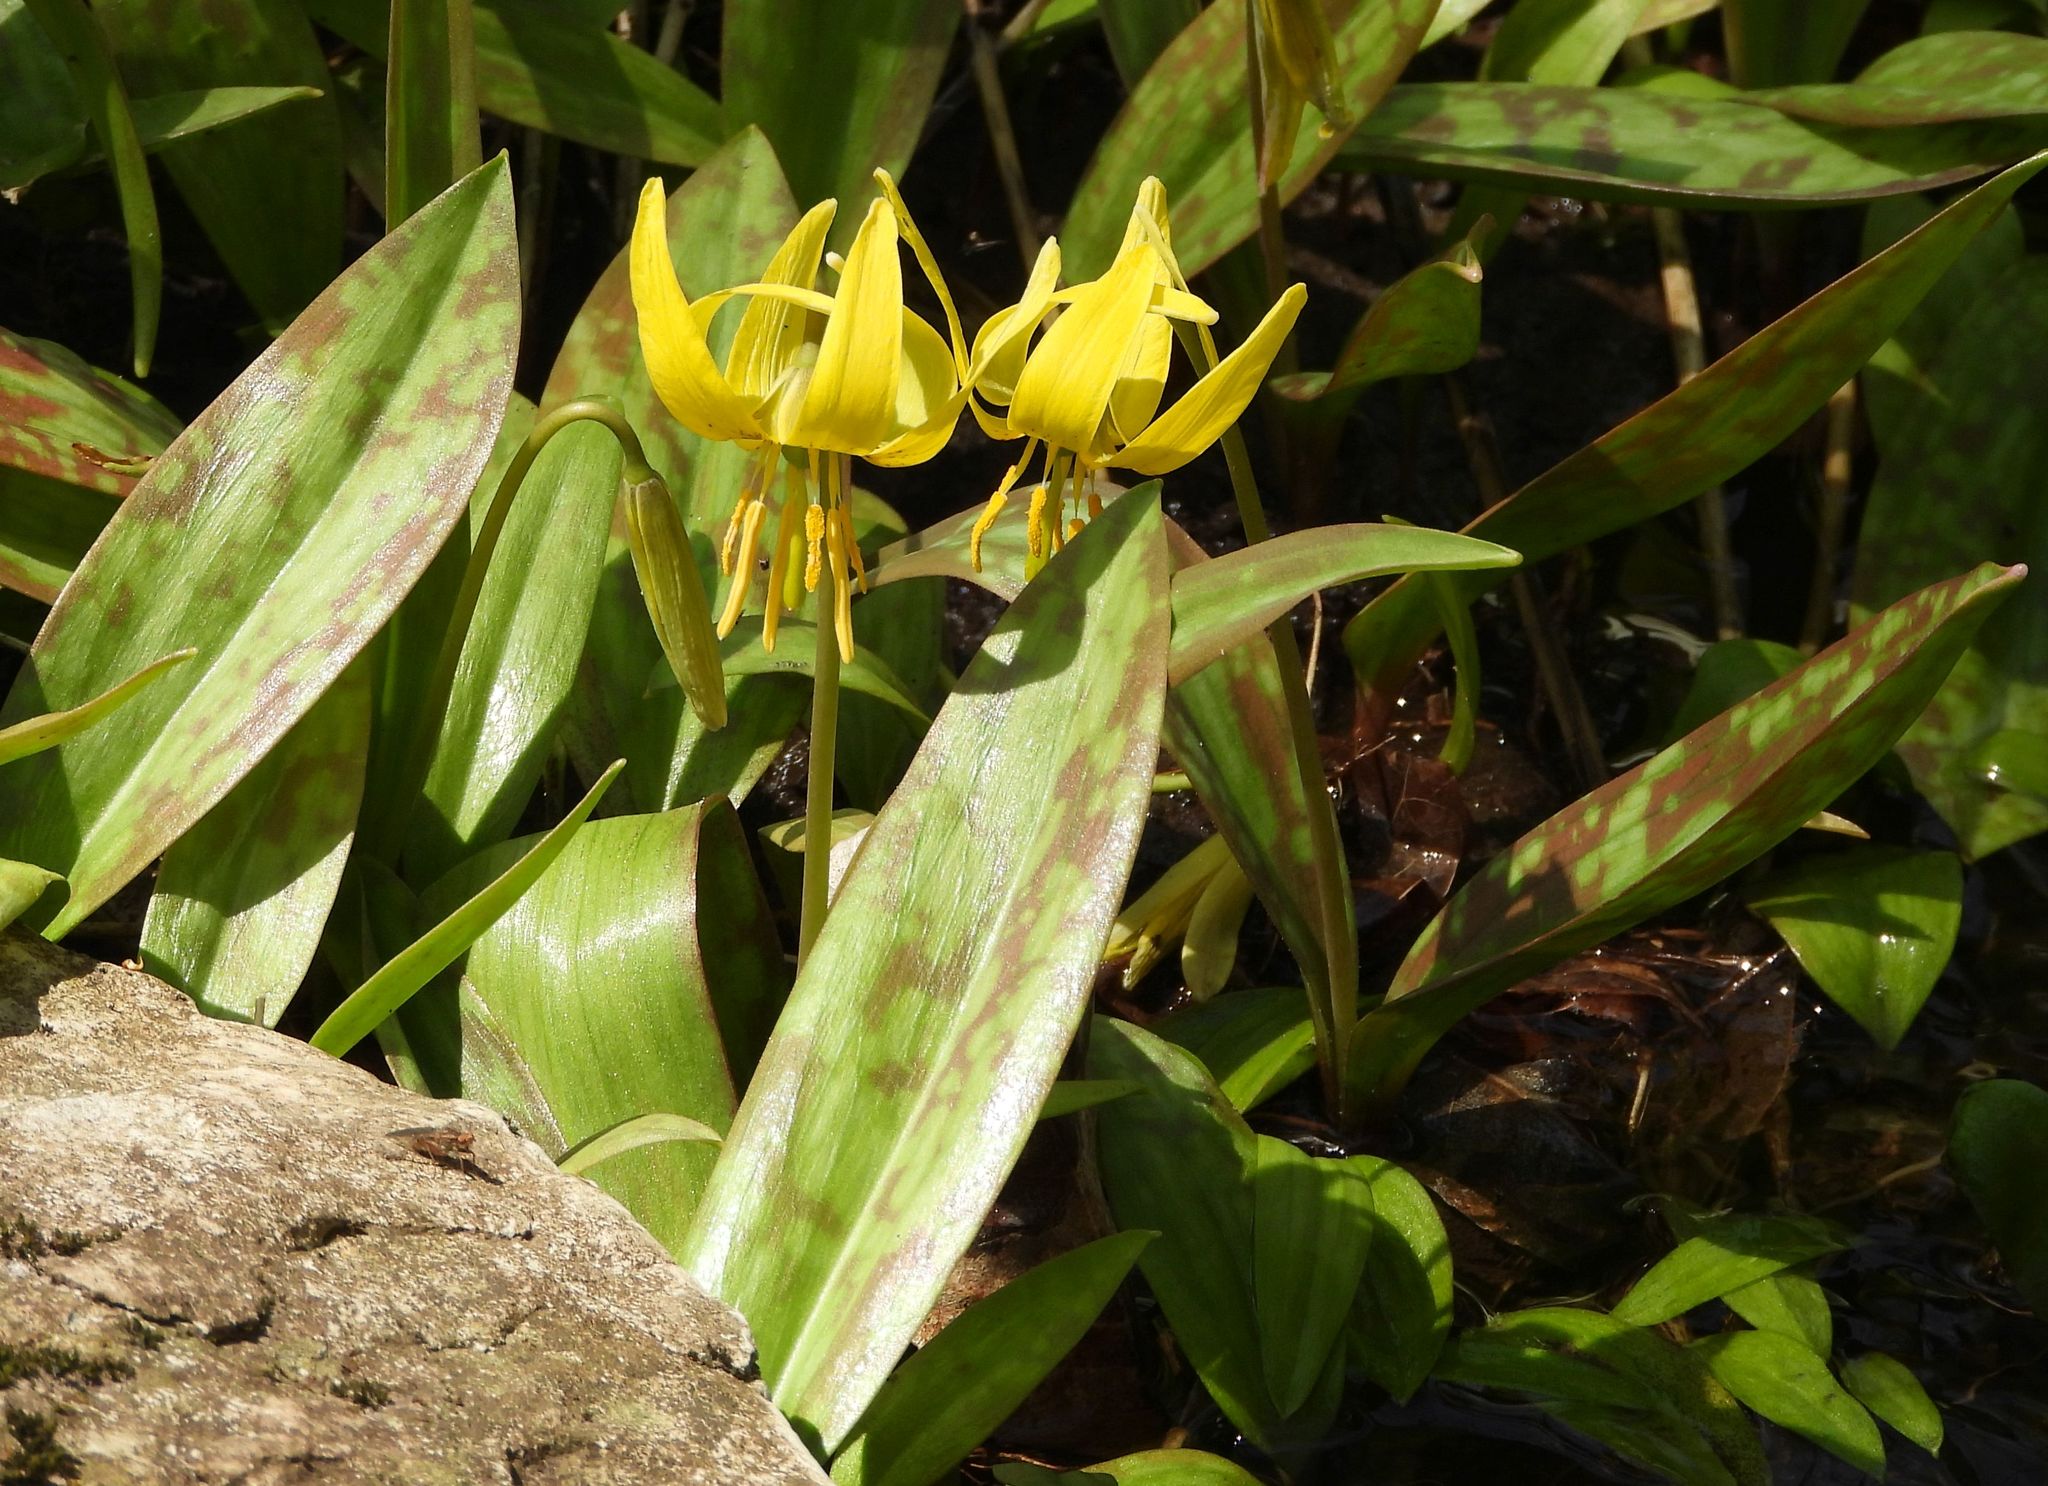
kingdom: Plantae
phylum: Tracheophyta
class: Liliopsida
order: Liliales
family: Liliaceae
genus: Erythronium
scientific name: Erythronium americanum
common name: Yellow adder's-tongue
